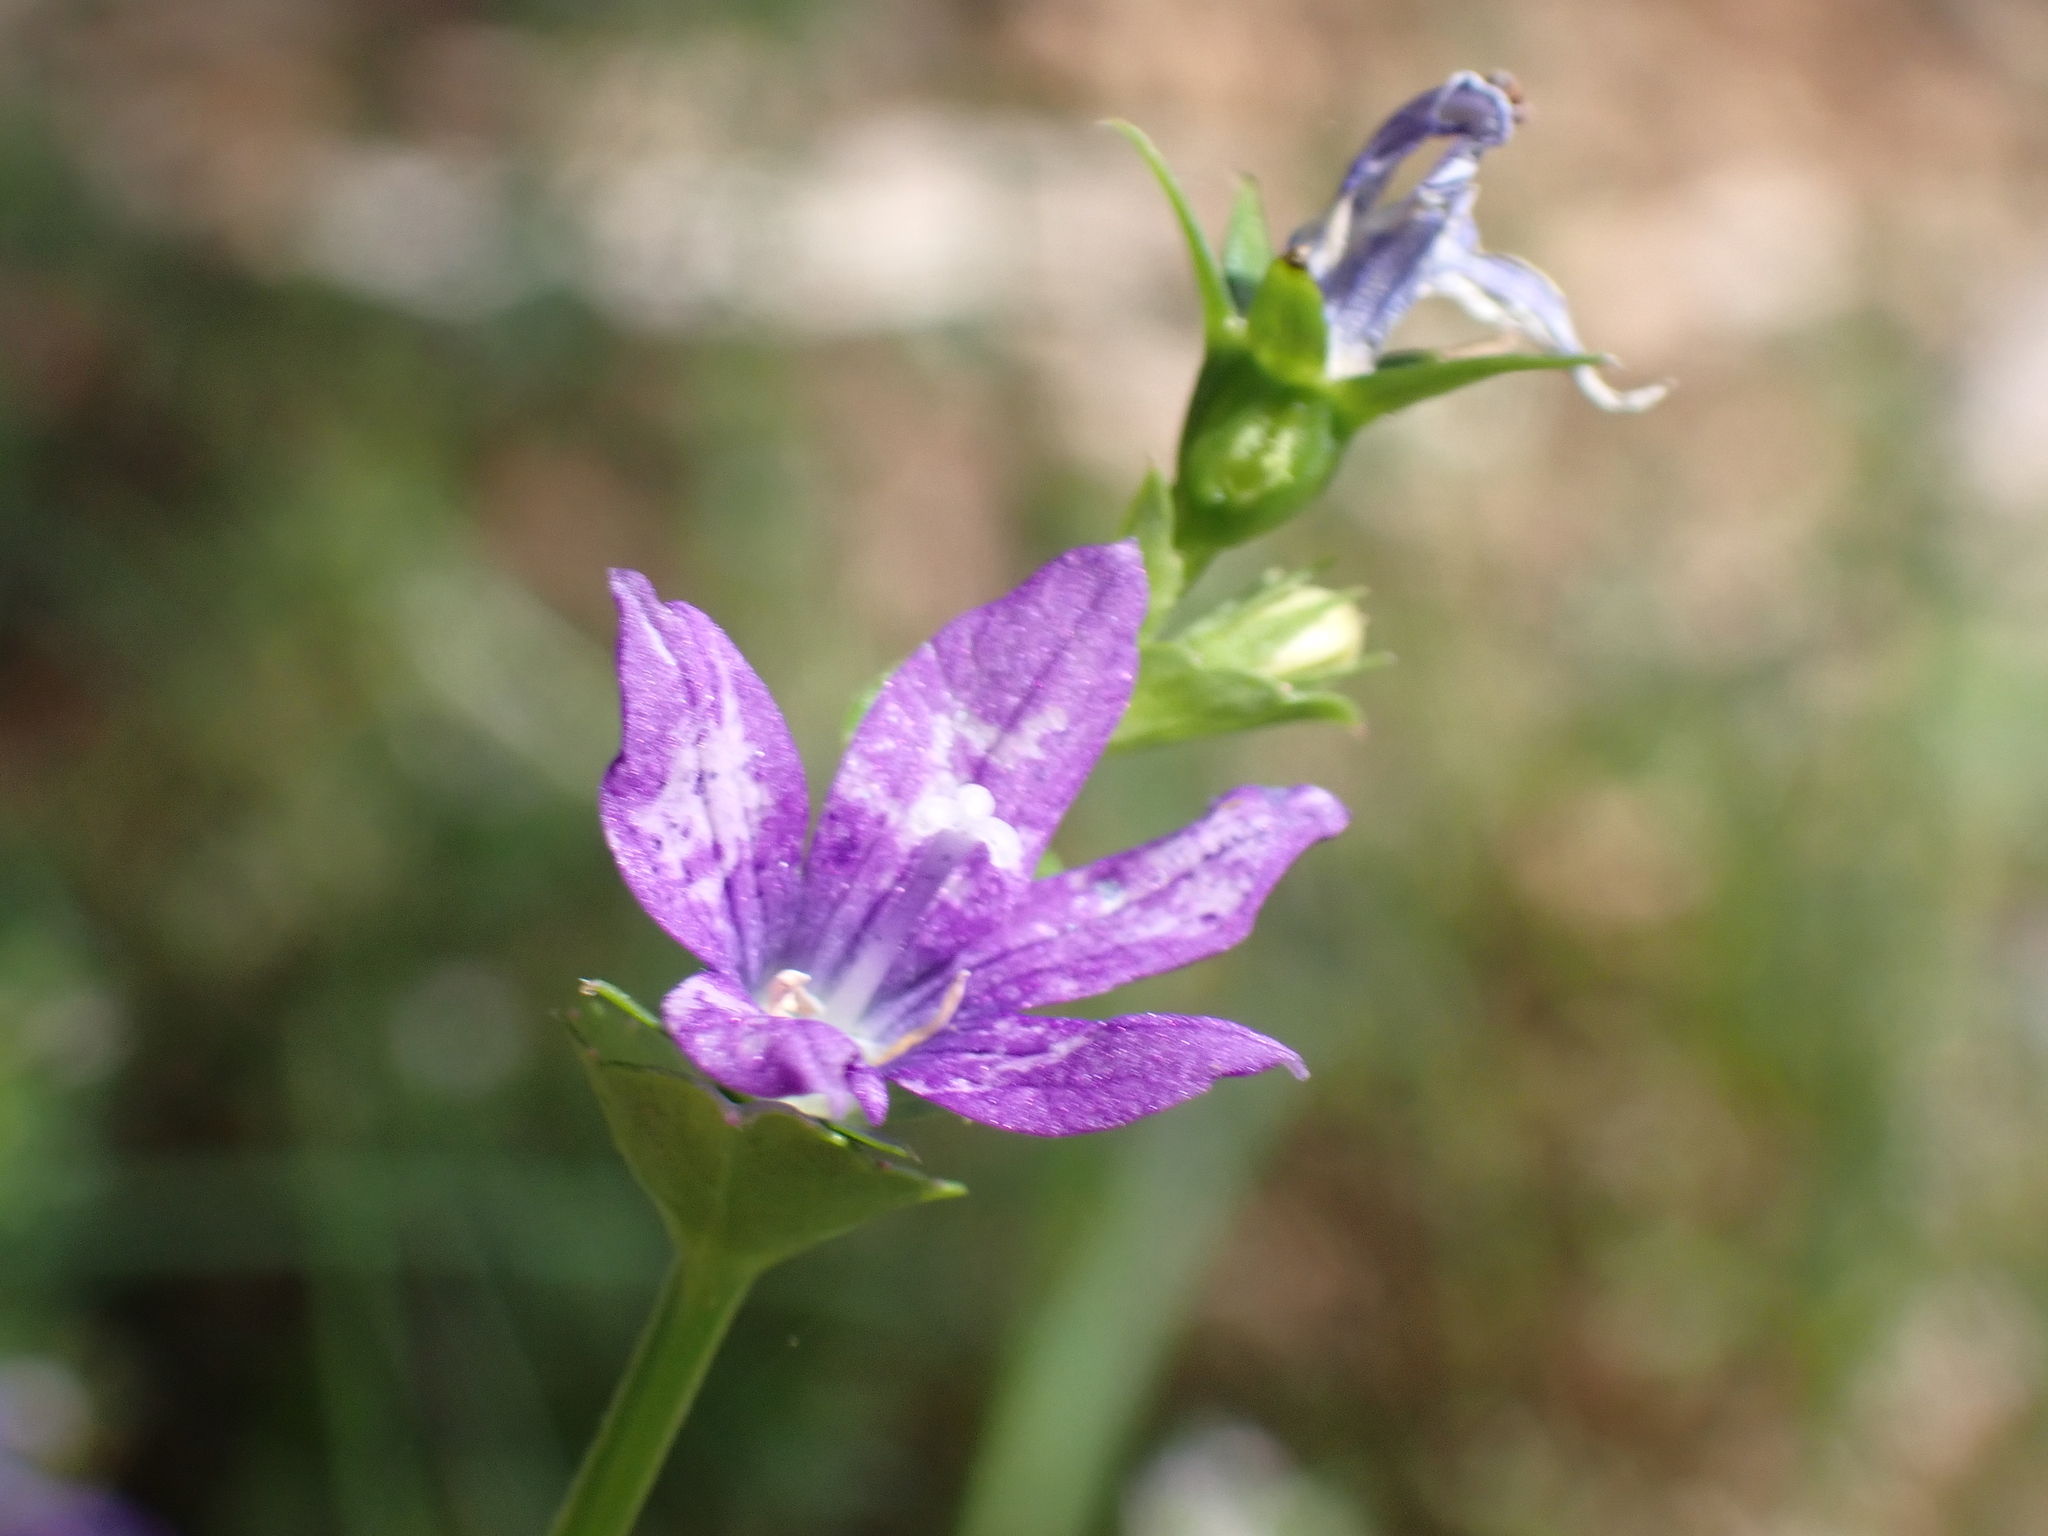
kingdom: Plantae
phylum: Tracheophyta
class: Magnoliopsida
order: Asterales
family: Campanulaceae
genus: Triodanis
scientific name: Triodanis perfoliata
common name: Clasping venus' looking-glass
